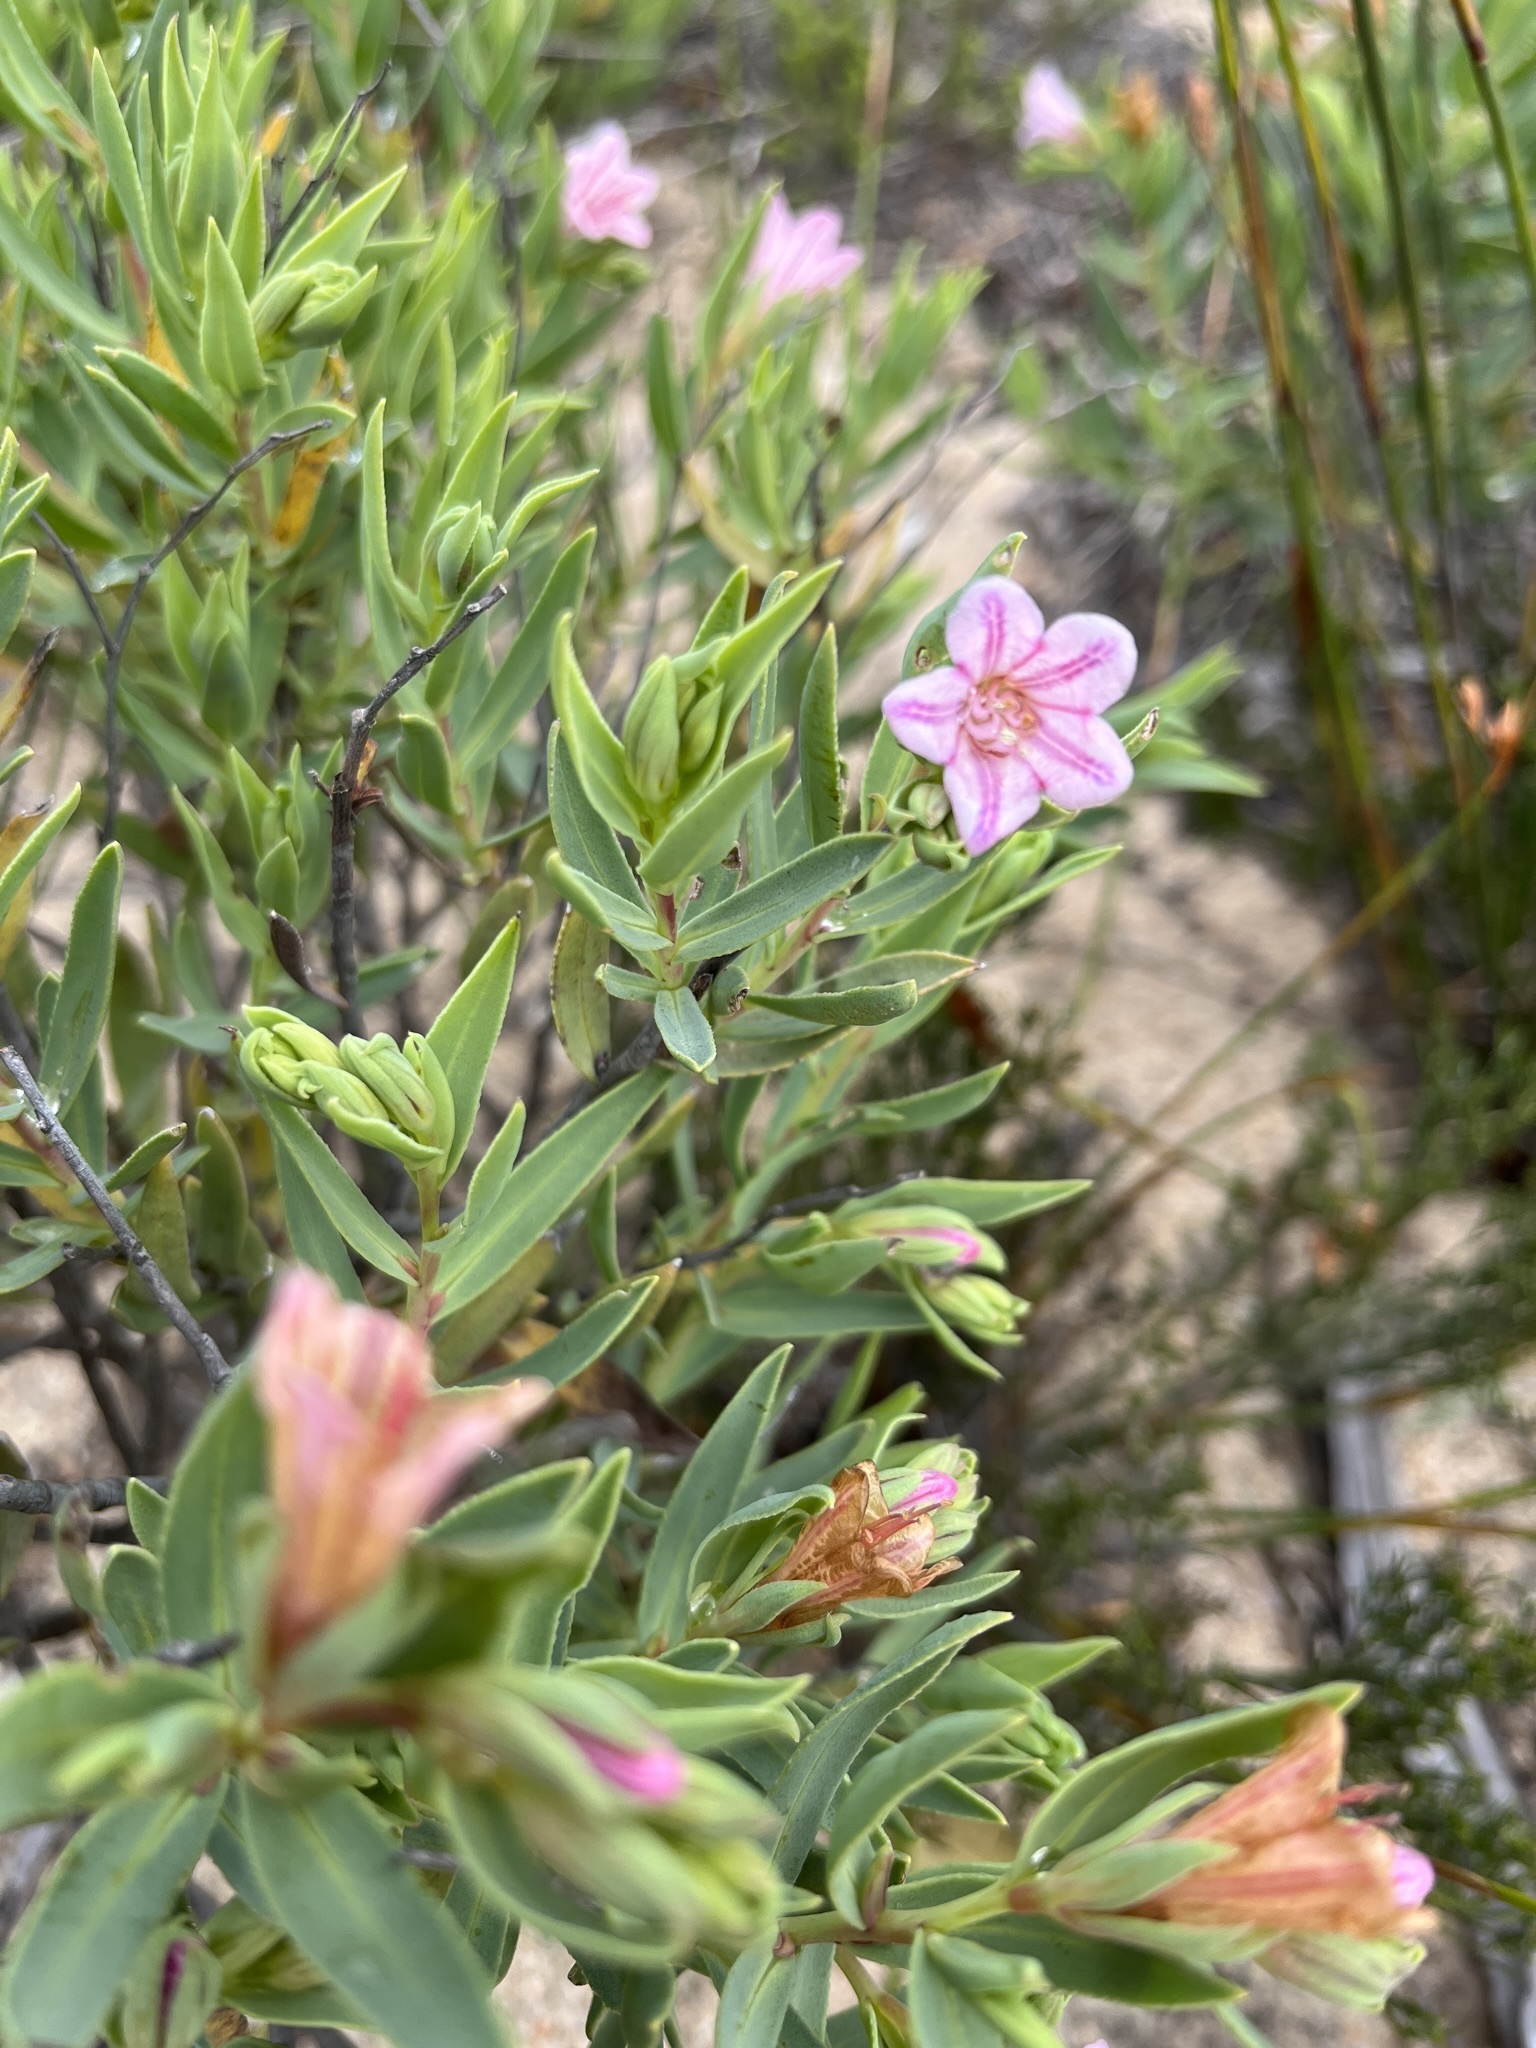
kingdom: Plantae
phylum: Tracheophyta
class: Magnoliopsida
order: Boraginales
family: Boraginaceae
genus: Lobostemon
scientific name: Lobostemon glaucophyllus
